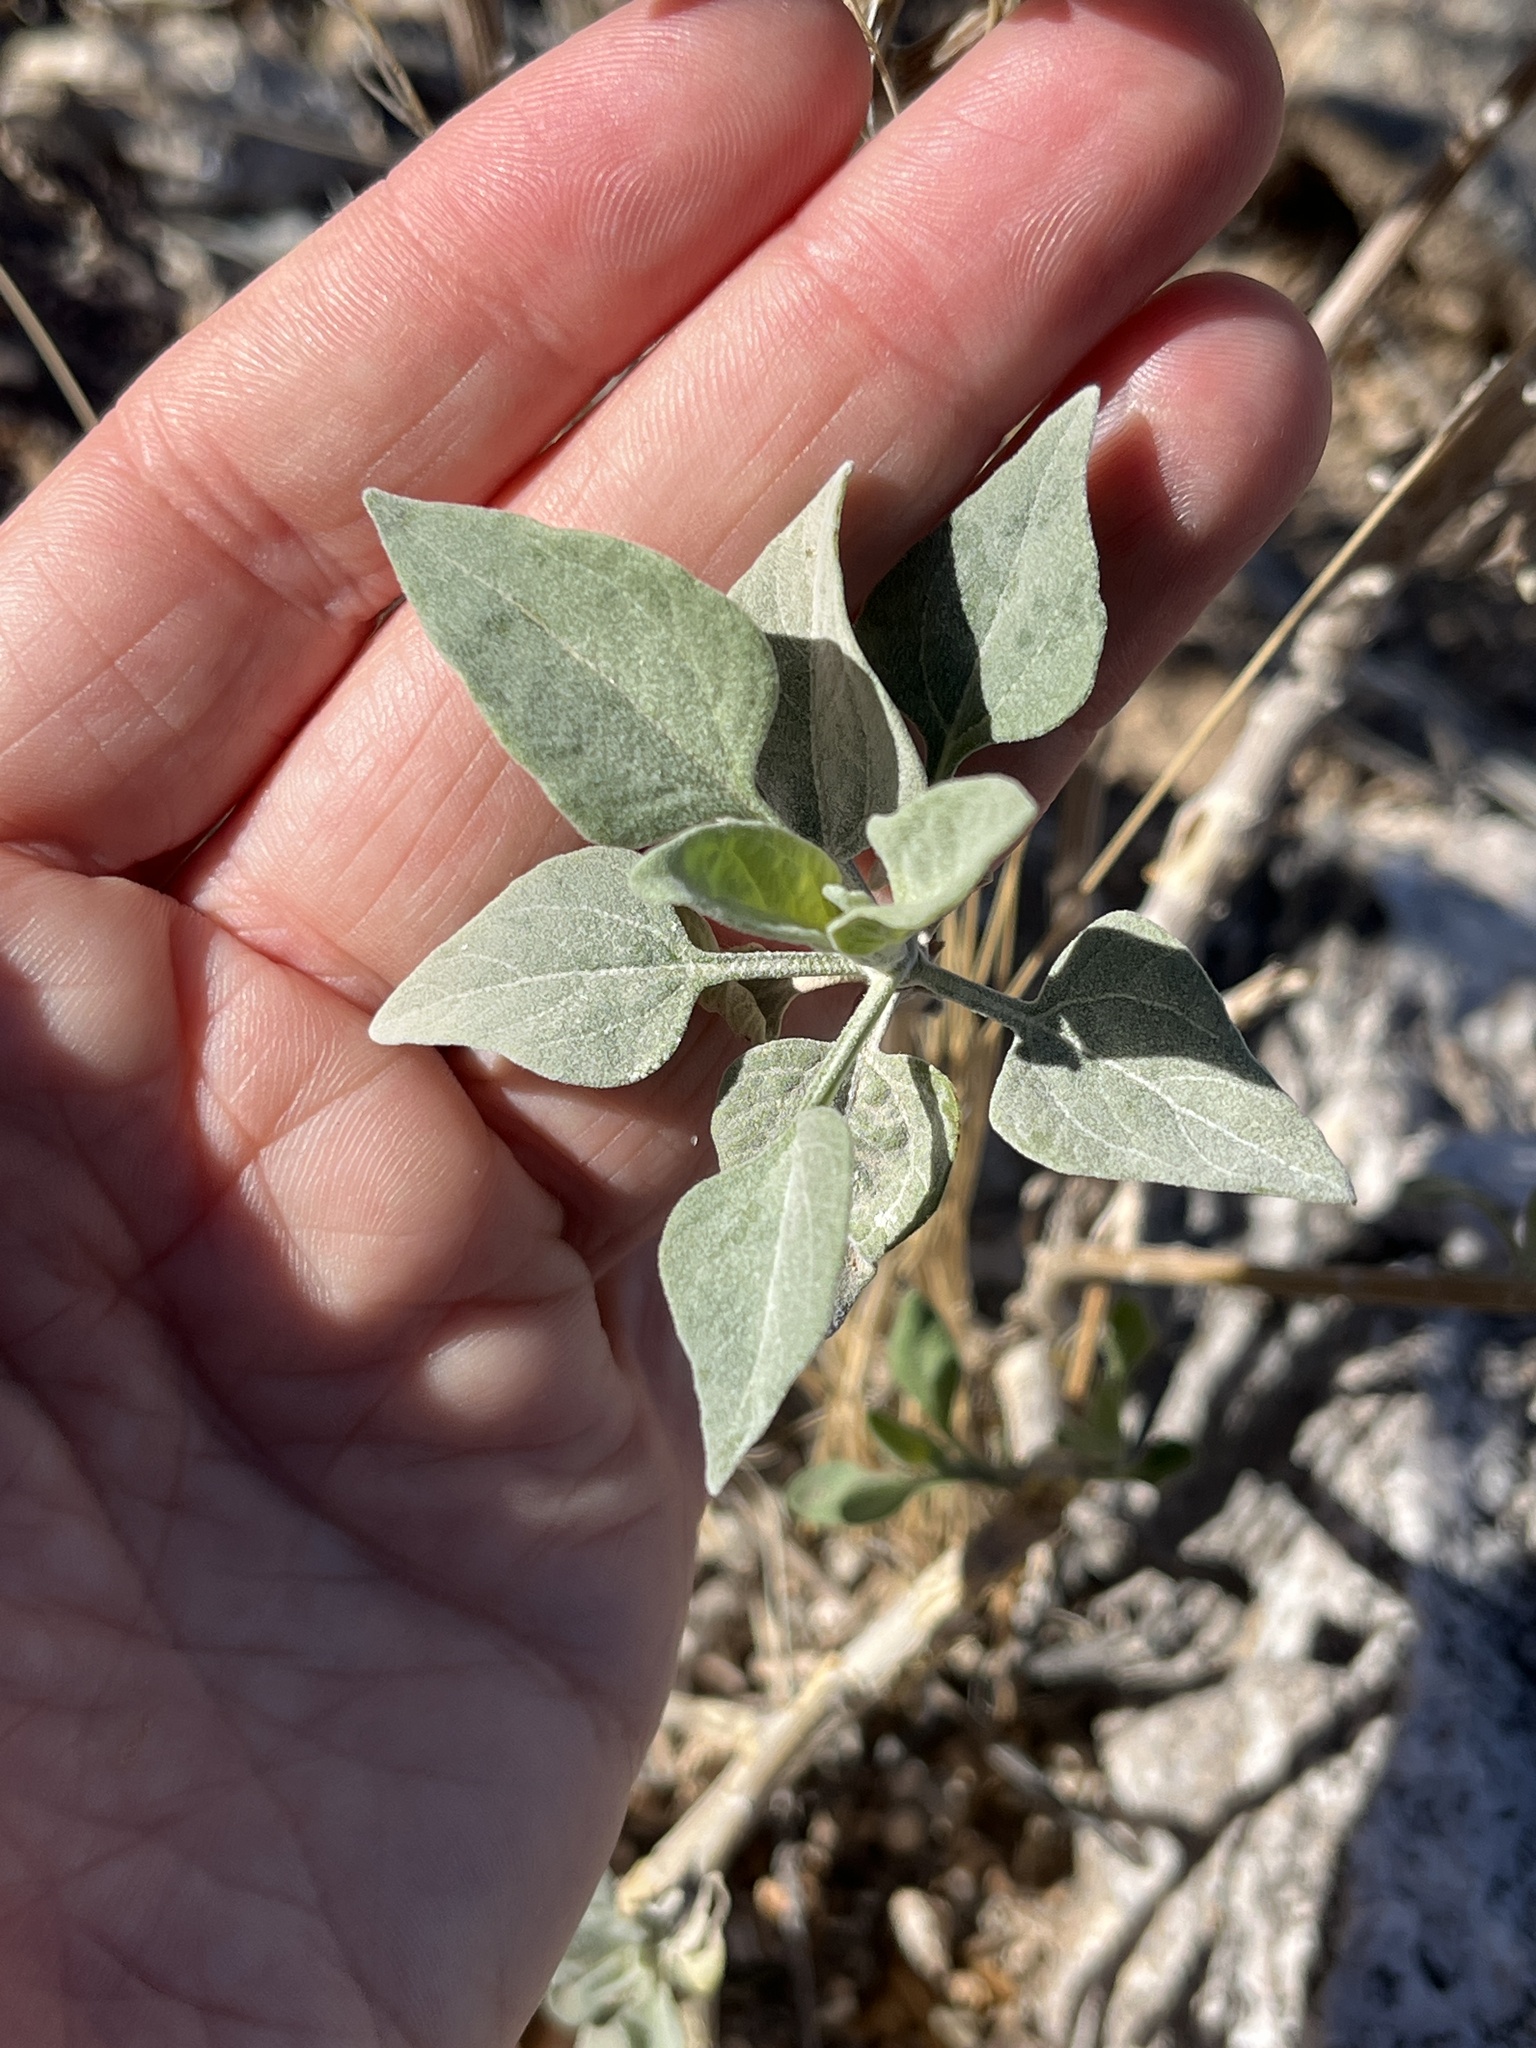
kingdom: Plantae
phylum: Tracheophyta
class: Magnoliopsida
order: Asterales
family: Asteraceae
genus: Encelia
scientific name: Encelia farinosa
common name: Brittlebush
